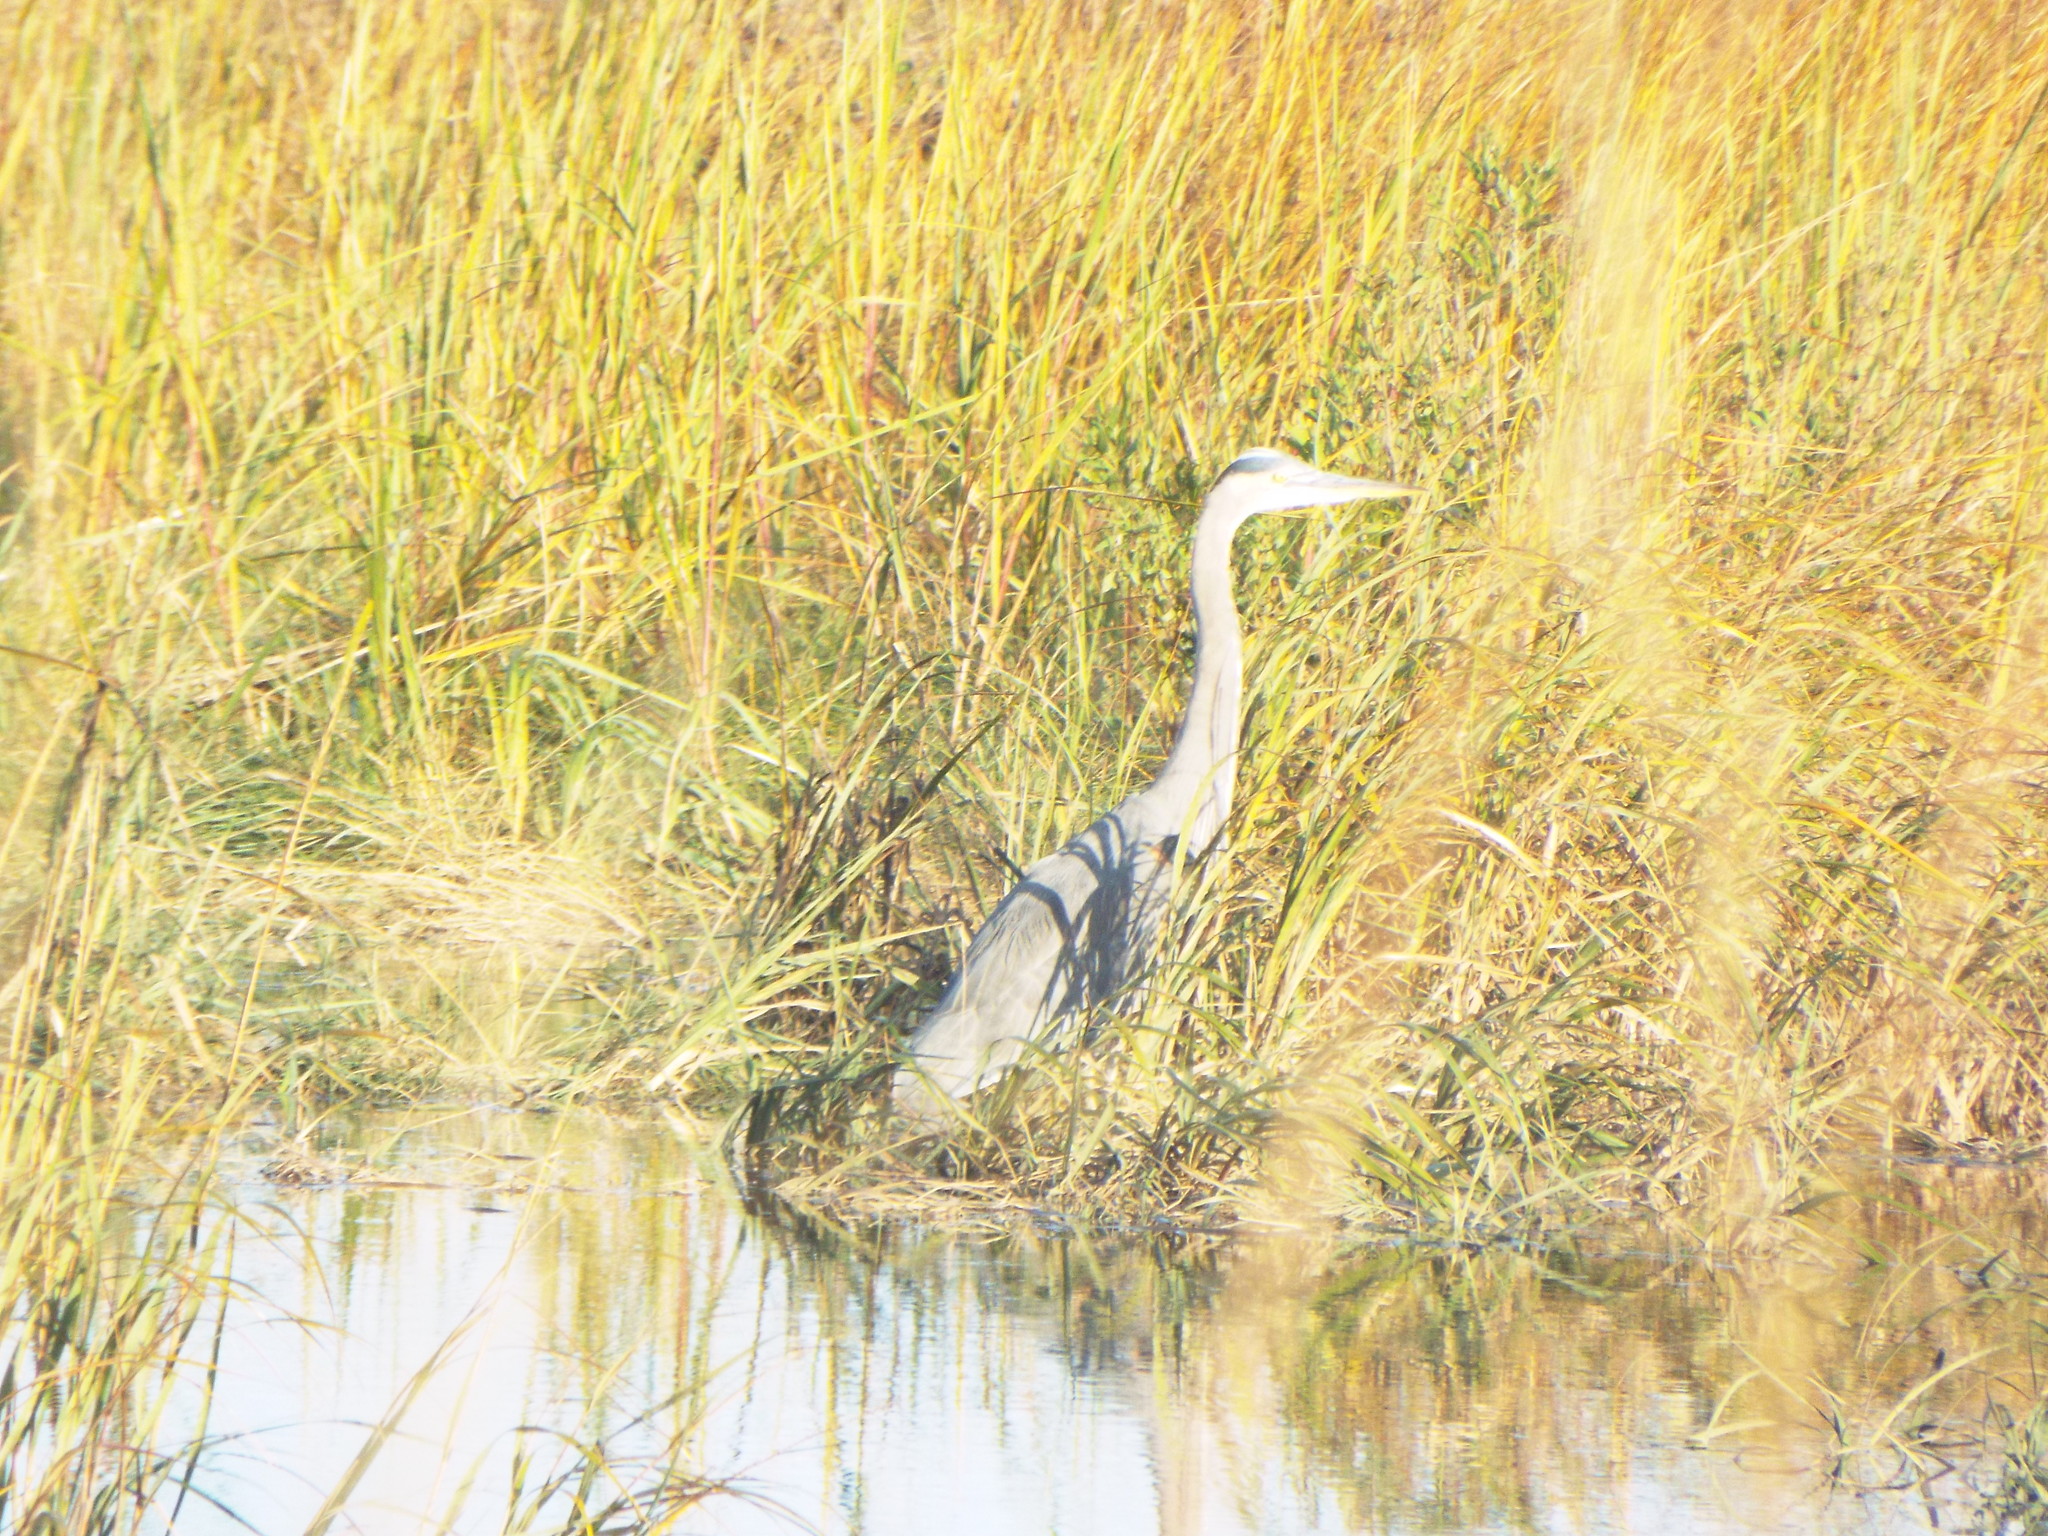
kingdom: Animalia
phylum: Chordata
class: Aves
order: Pelecaniformes
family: Ardeidae
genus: Ardea
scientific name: Ardea herodias
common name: Great blue heron
